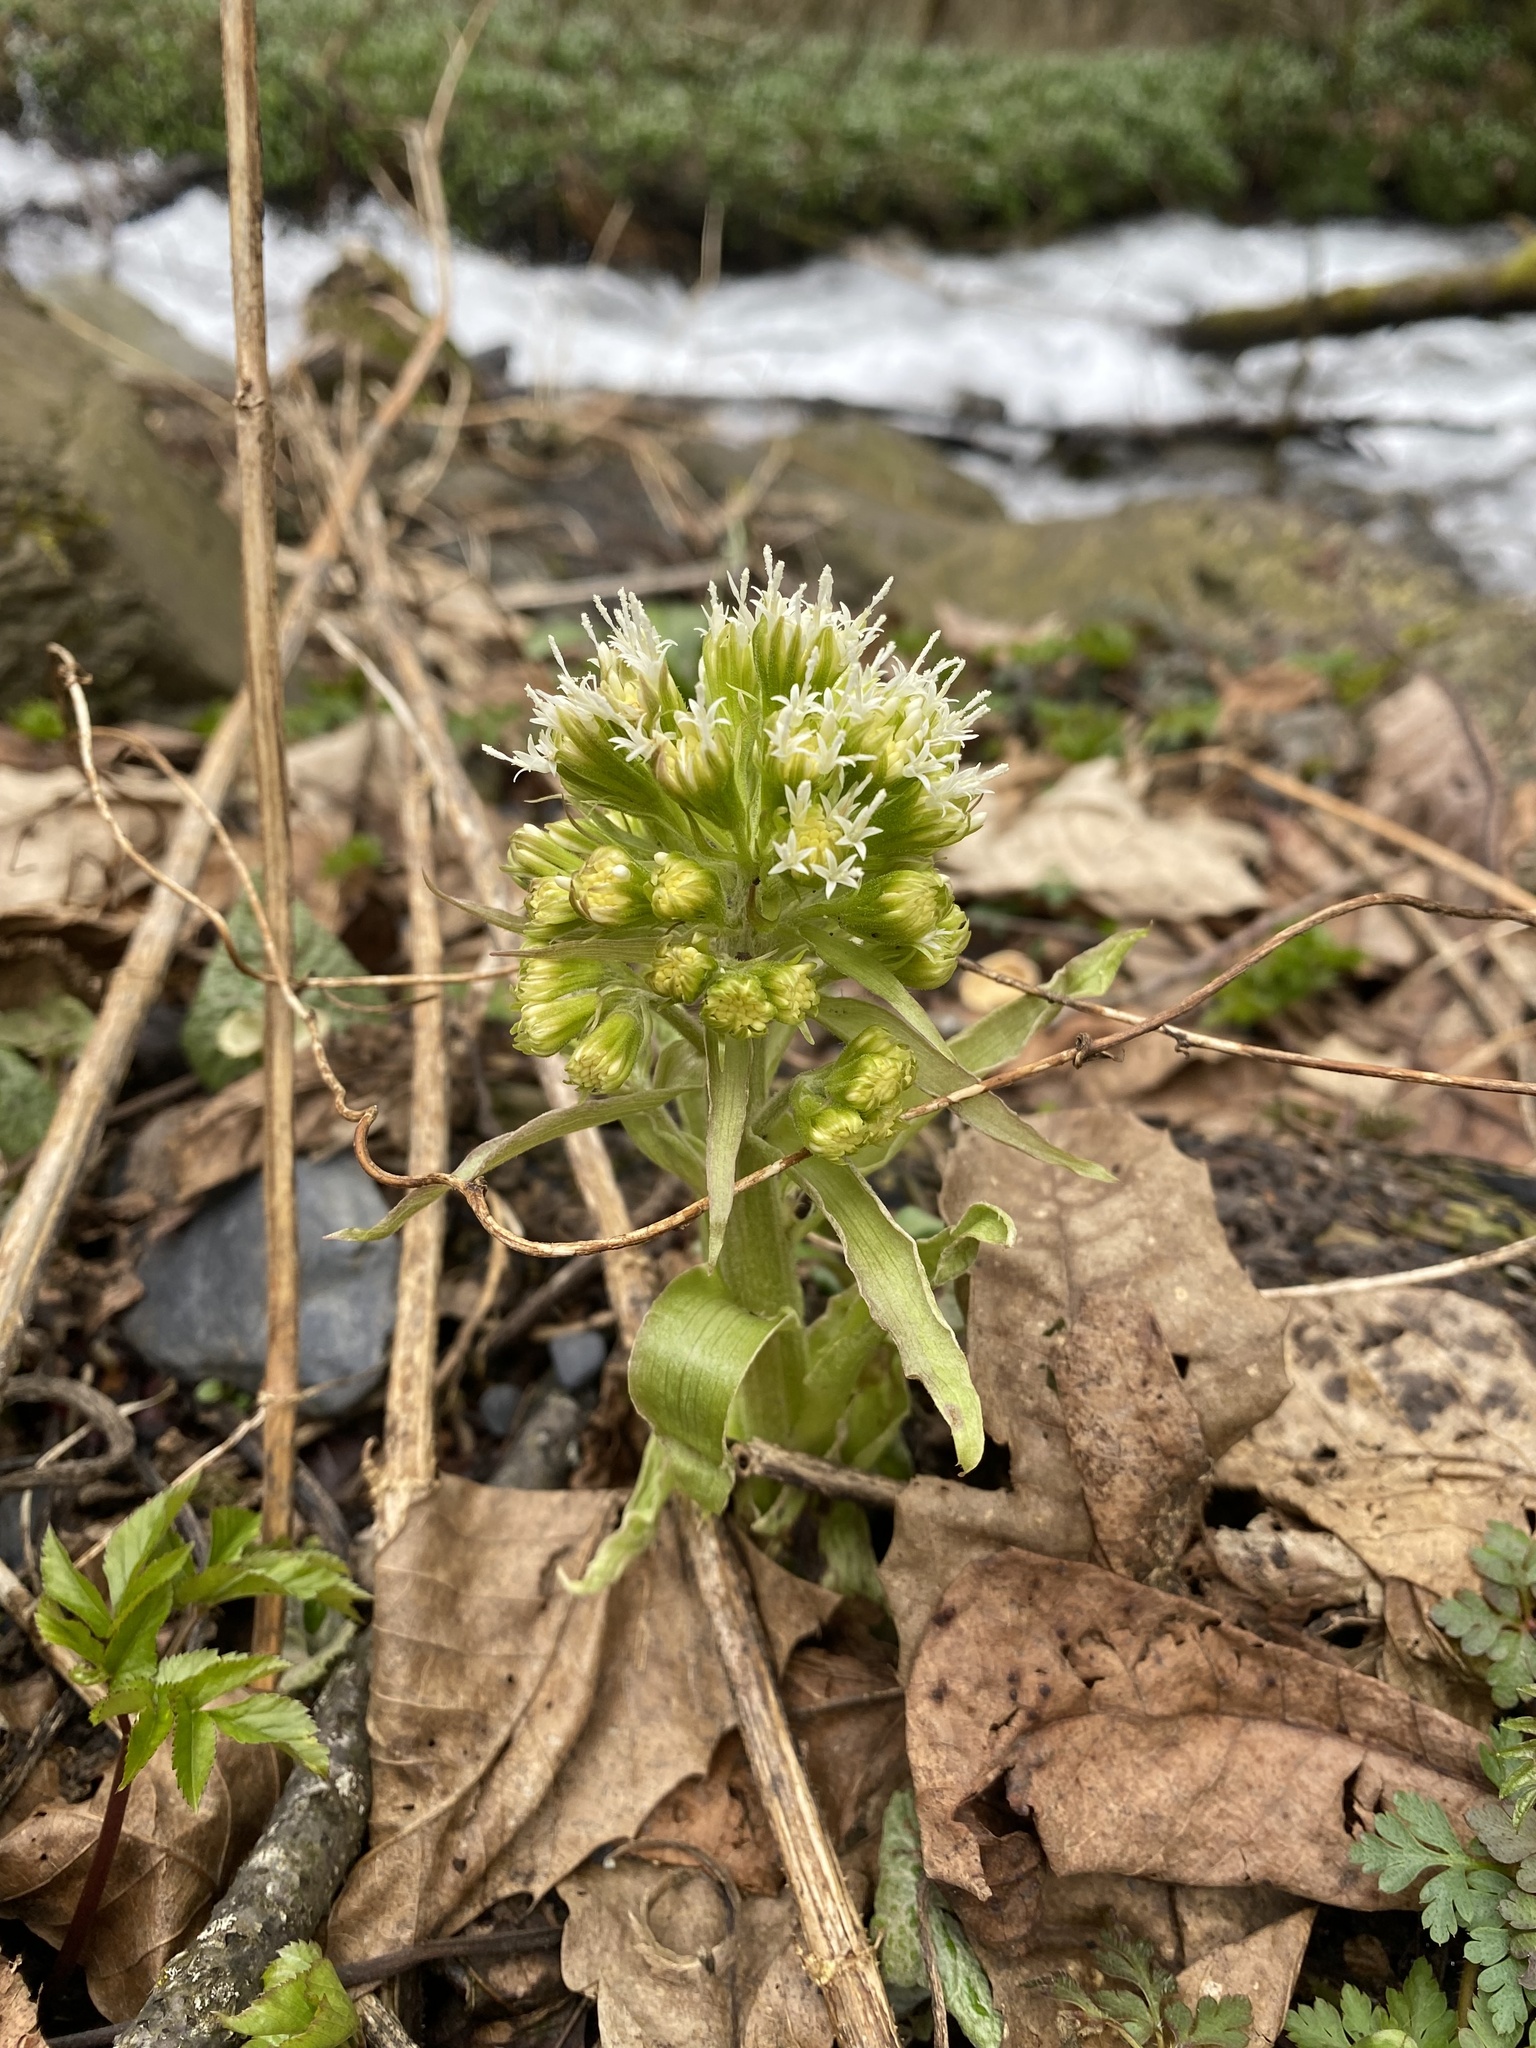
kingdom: Plantae
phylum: Tracheophyta
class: Magnoliopsida
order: Asterales
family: Asteraceae
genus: Petasites
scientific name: Petasites albus
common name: White butterbur
